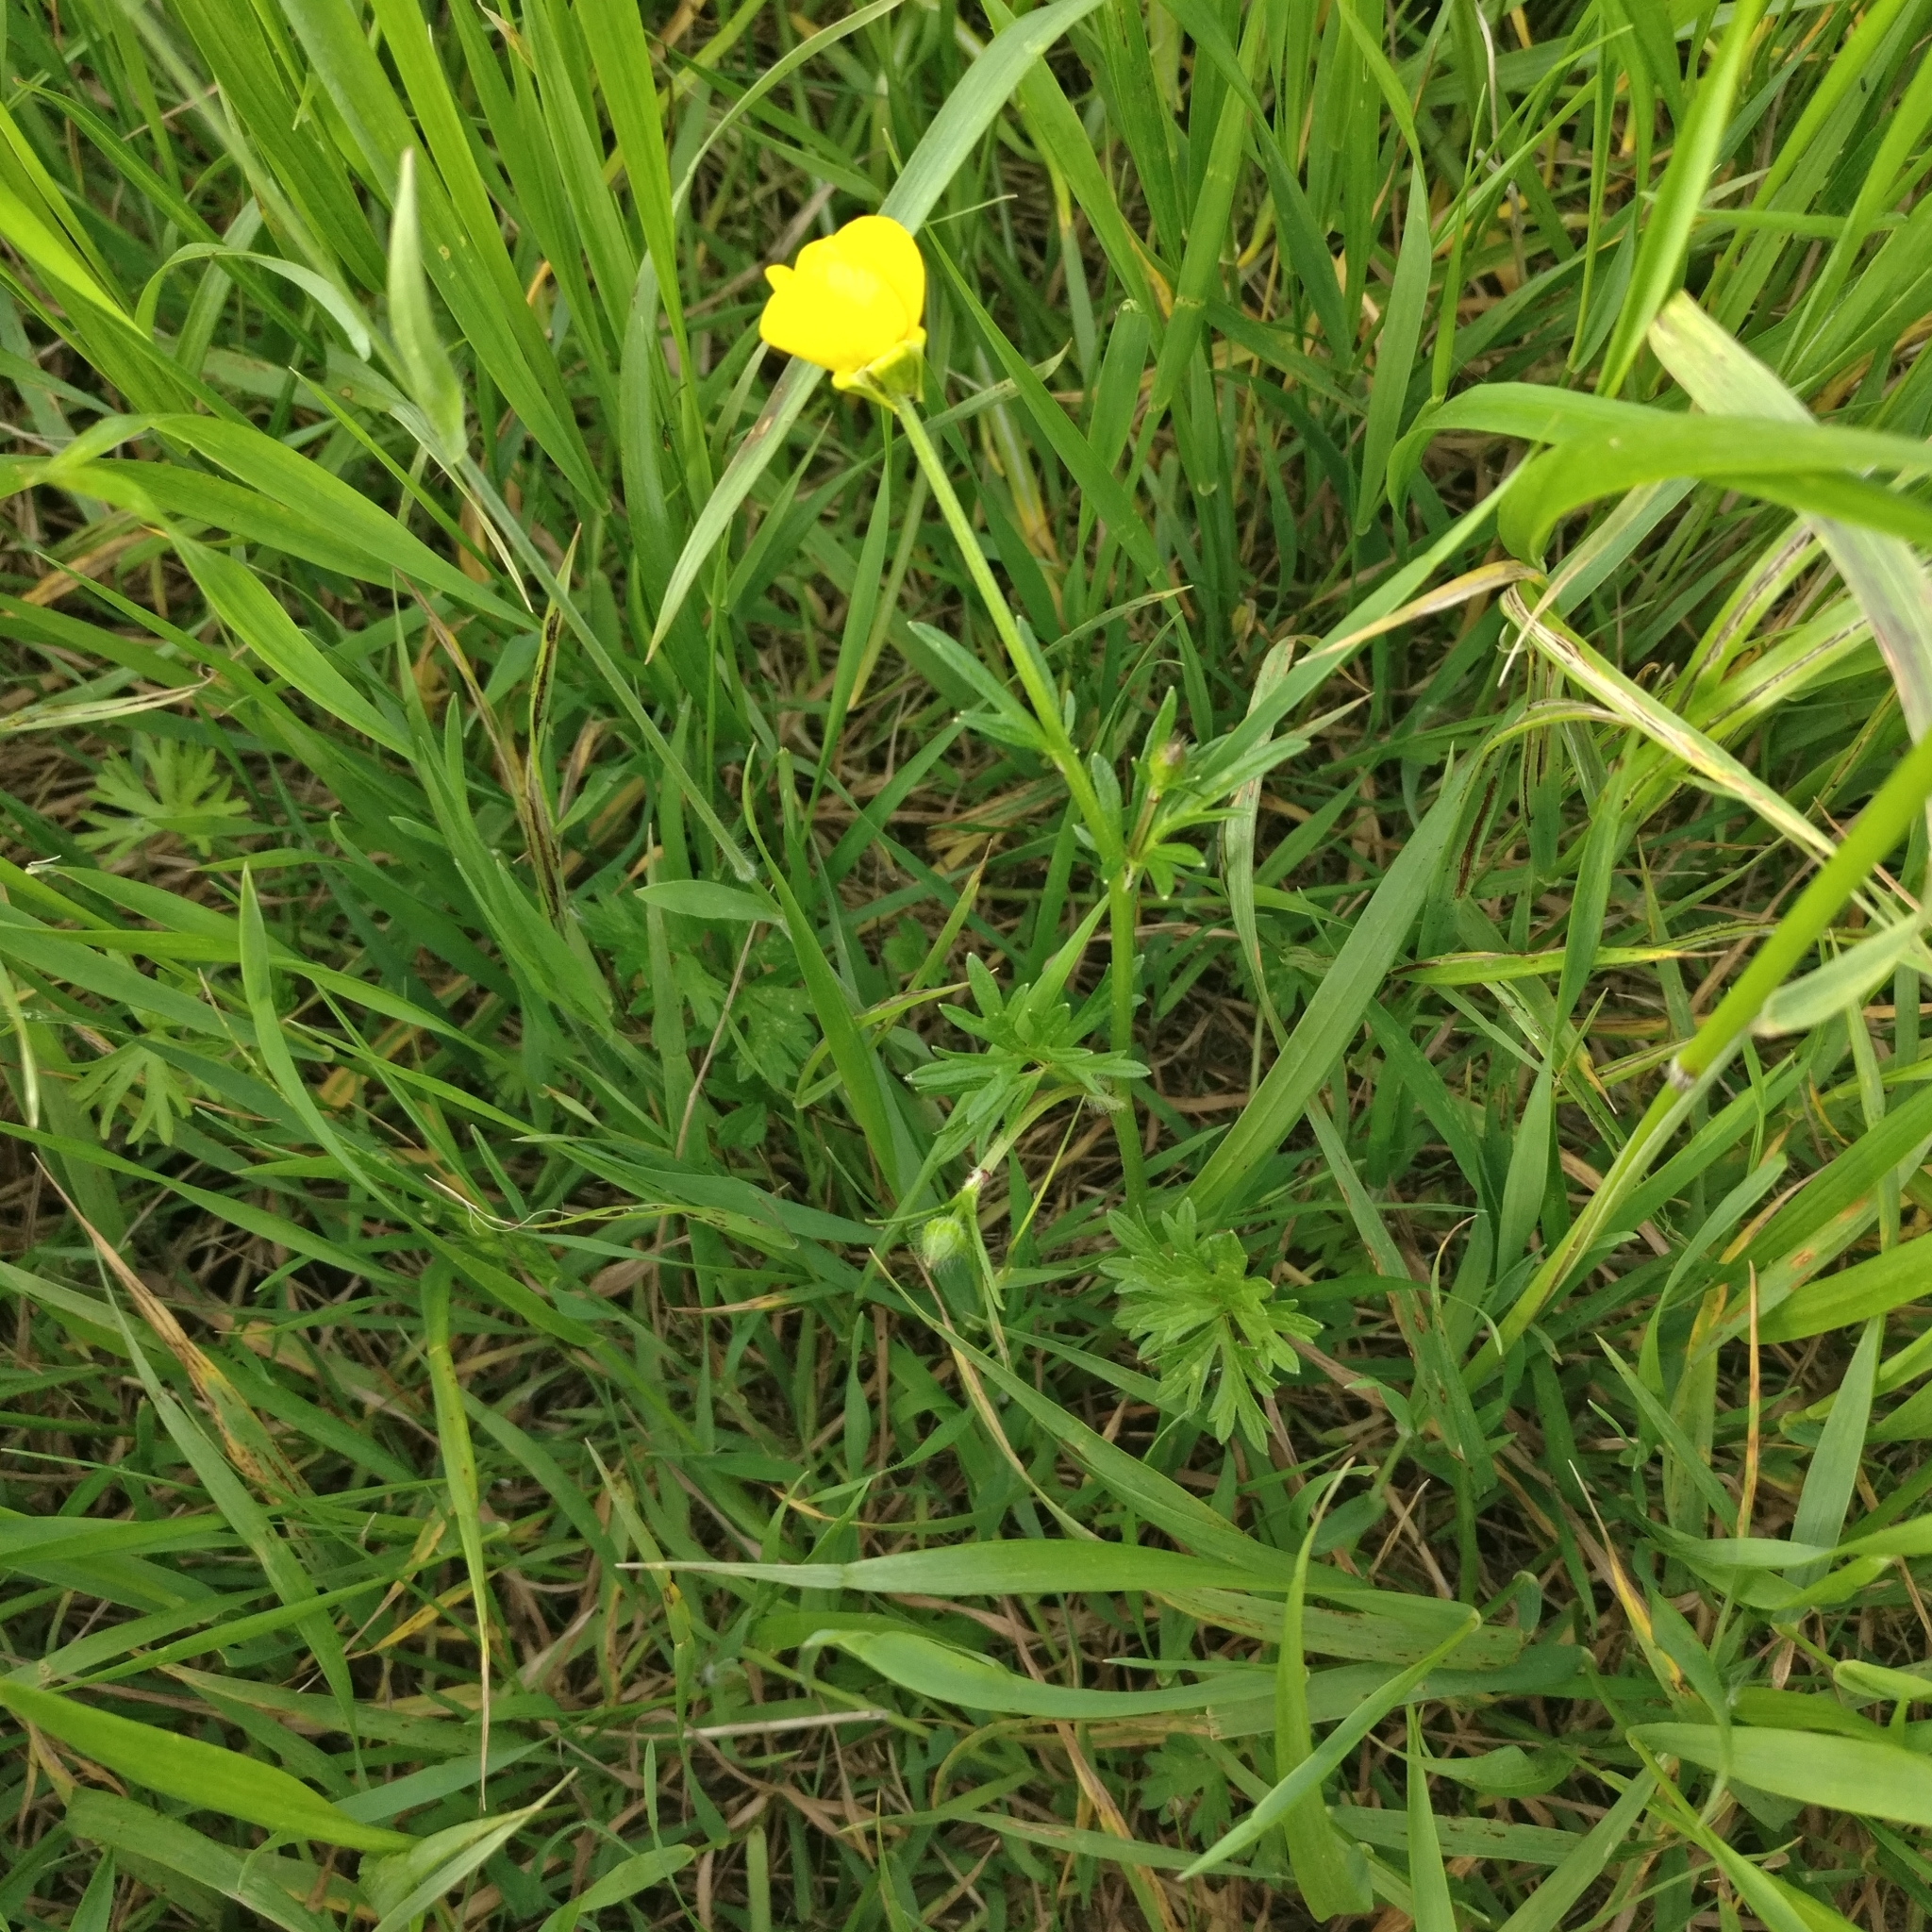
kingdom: Plantae
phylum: Tracheophyta
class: Magnoliopsida
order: Ranunculales
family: Ranunculaceae
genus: Ranunculus
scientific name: Ranunculus bulbosus
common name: Bulbous buttercup
